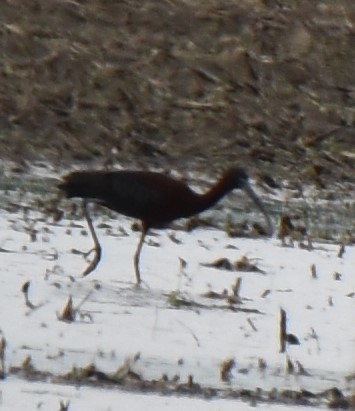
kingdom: Animalia
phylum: Chordata
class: Aves
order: Pelecaniformes
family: Threskiornithidae
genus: Plegadis
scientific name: Plegadis falcinellus
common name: Glossy ibis
